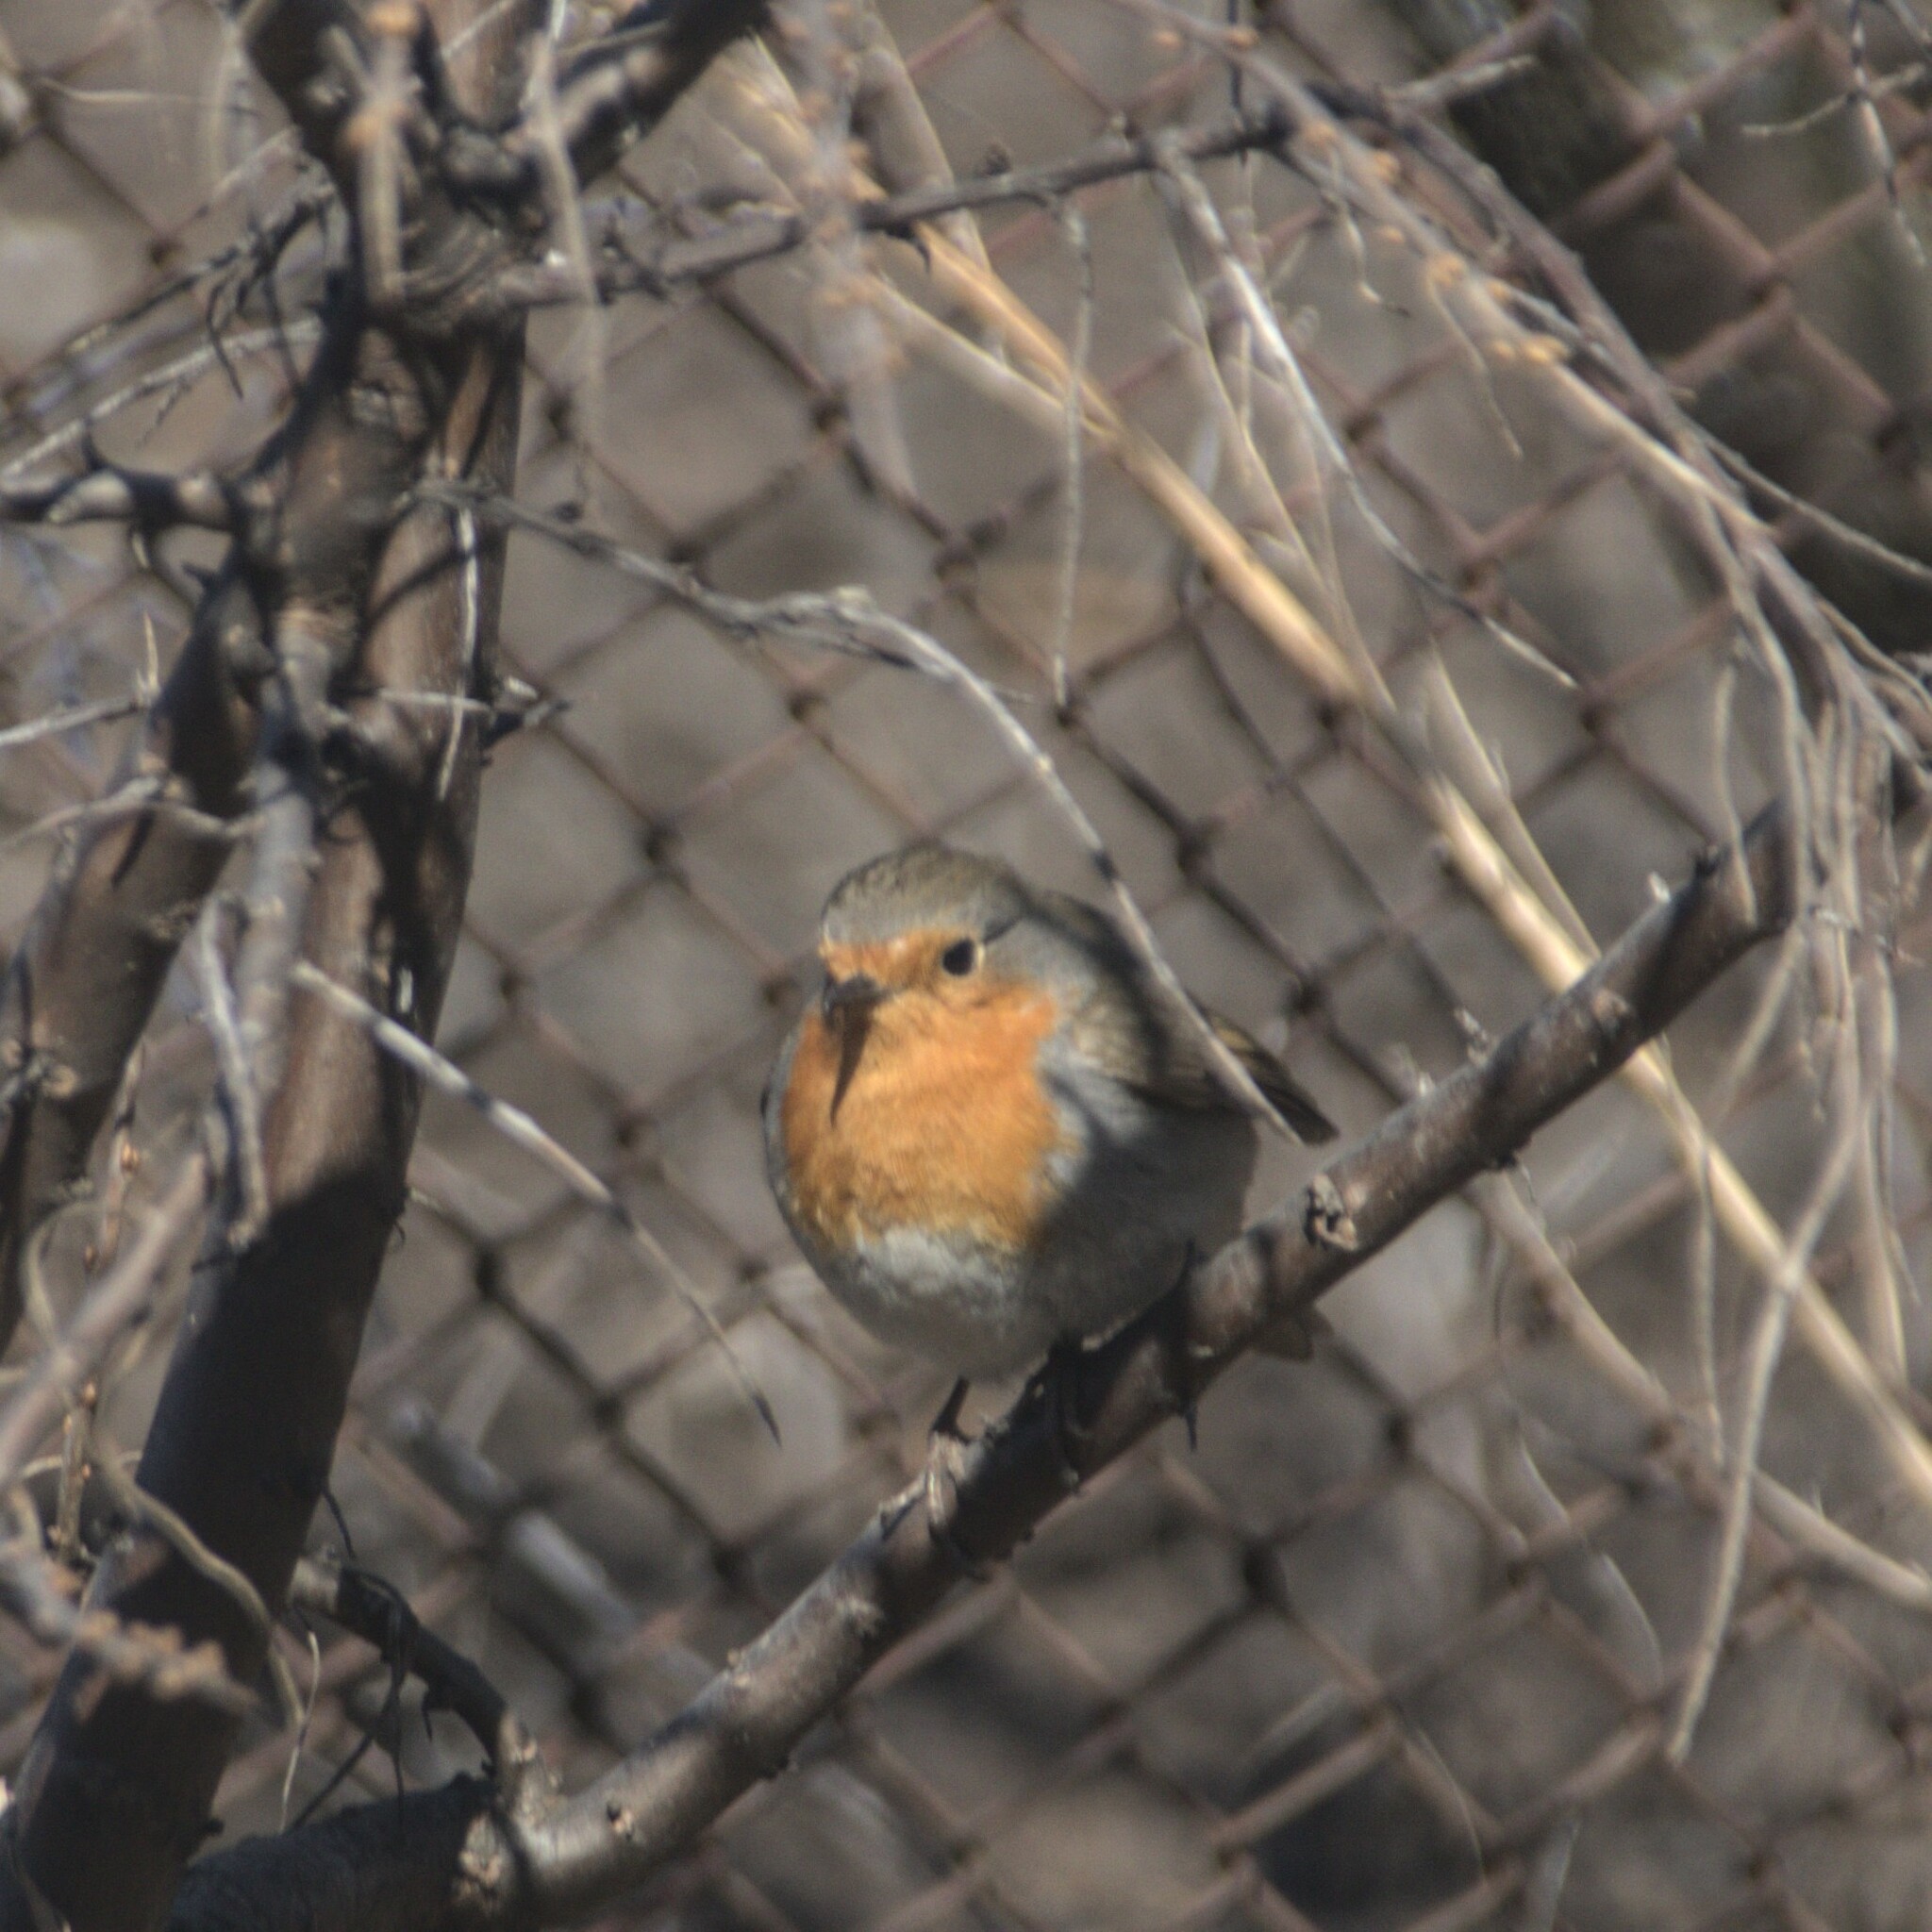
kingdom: Animalia
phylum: Chordata
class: Aves
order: Passeriformes
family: Muscicapidae
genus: Erithacus
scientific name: Erithacus rubecula
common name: European robin
